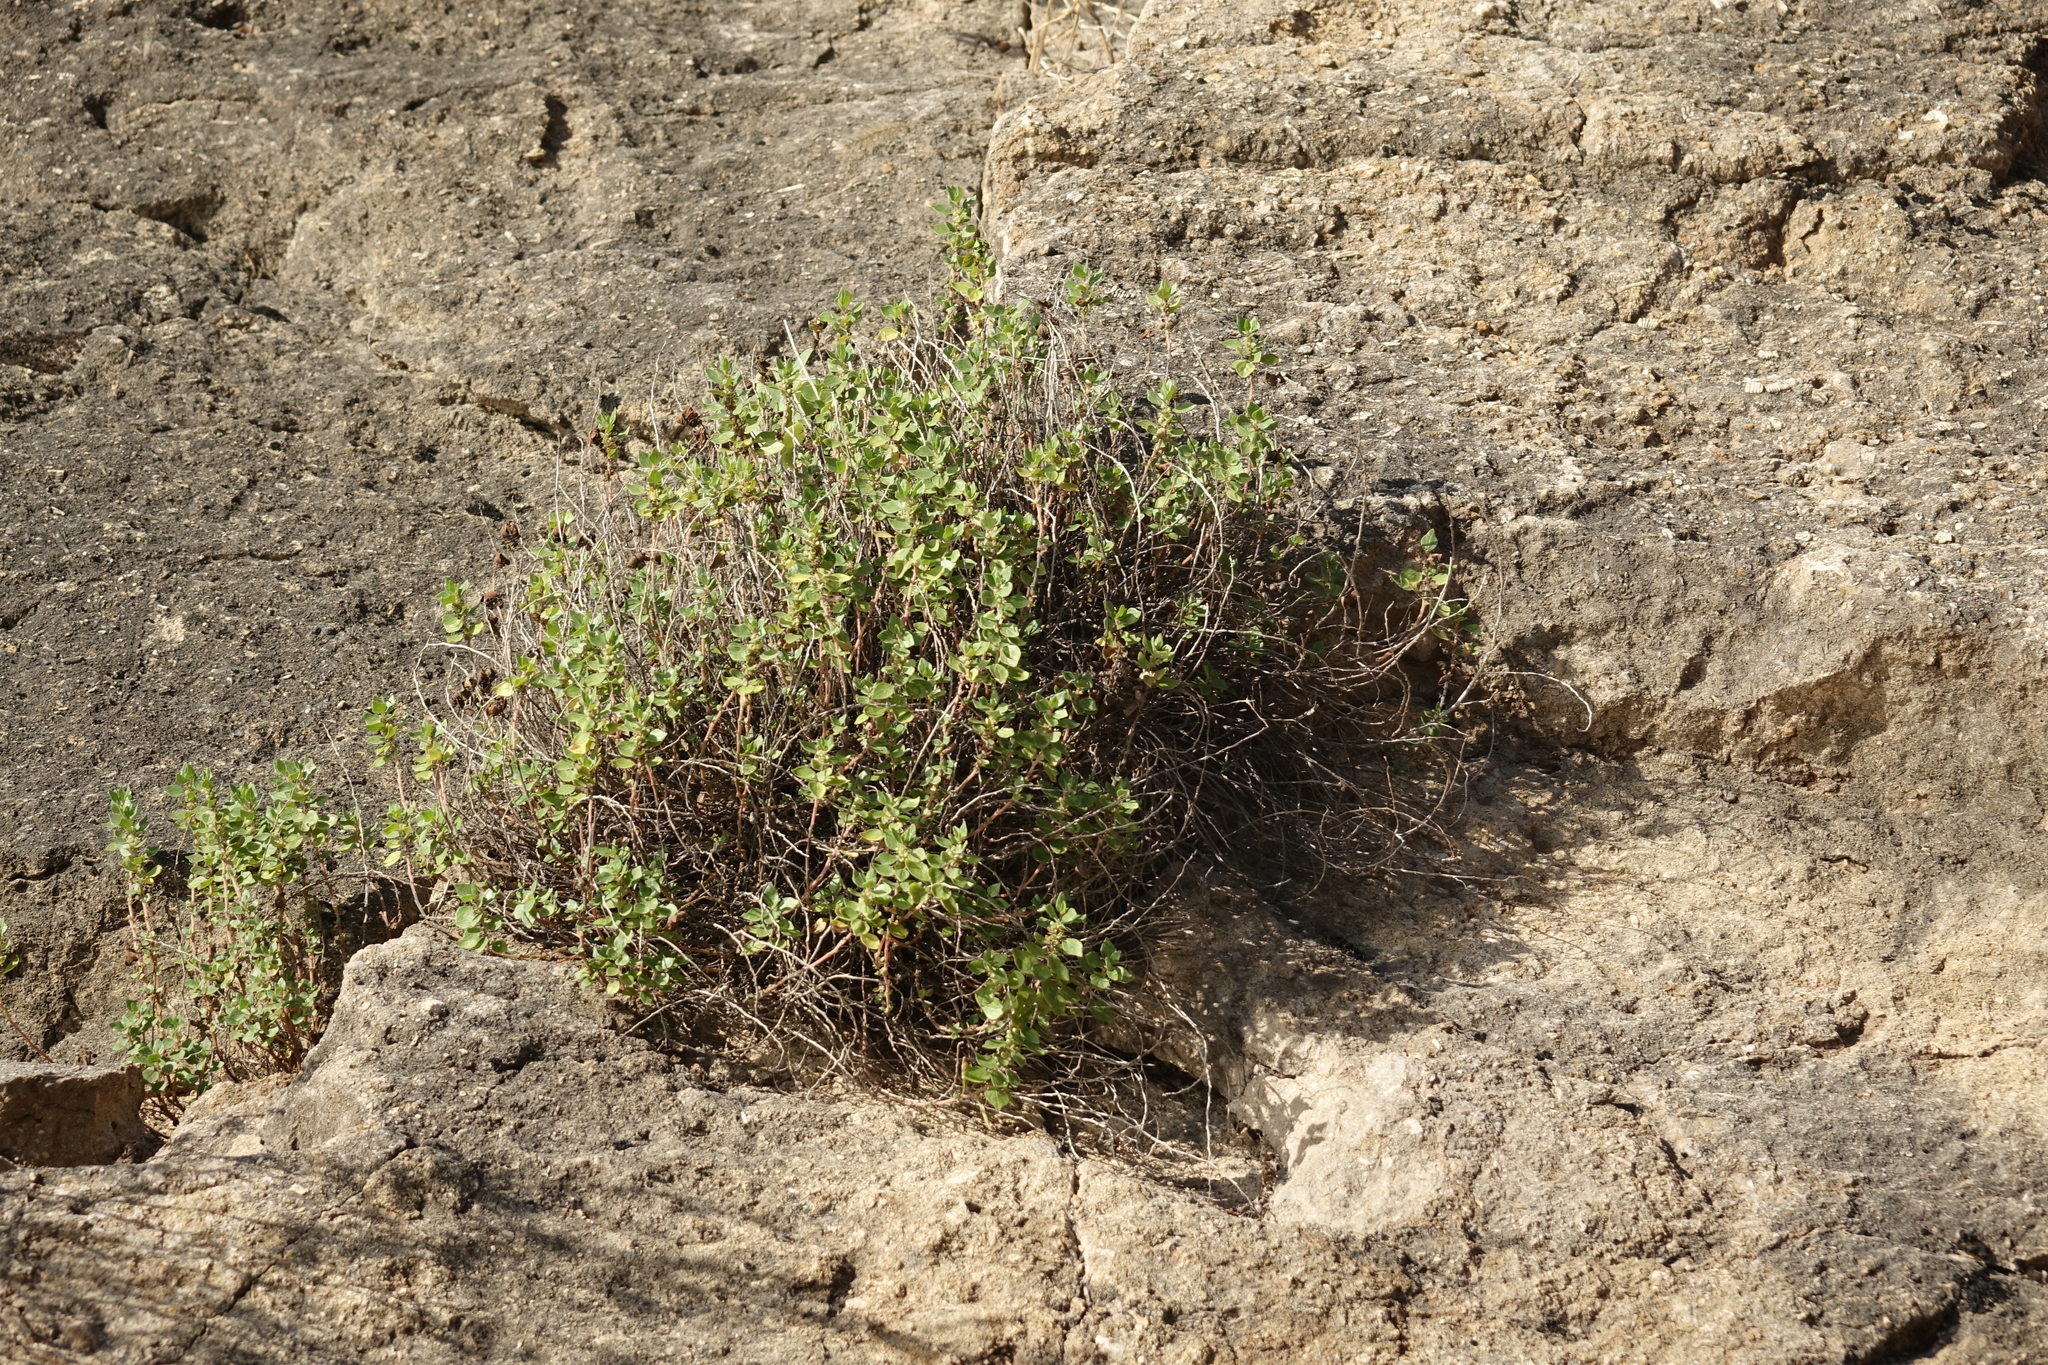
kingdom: Plantae
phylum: Tracheophyta
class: Magnoliopsida
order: Rosales
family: Urticaceae
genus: Parietaria
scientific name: Parietaria judaica
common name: Pellitory-of-the-wall
